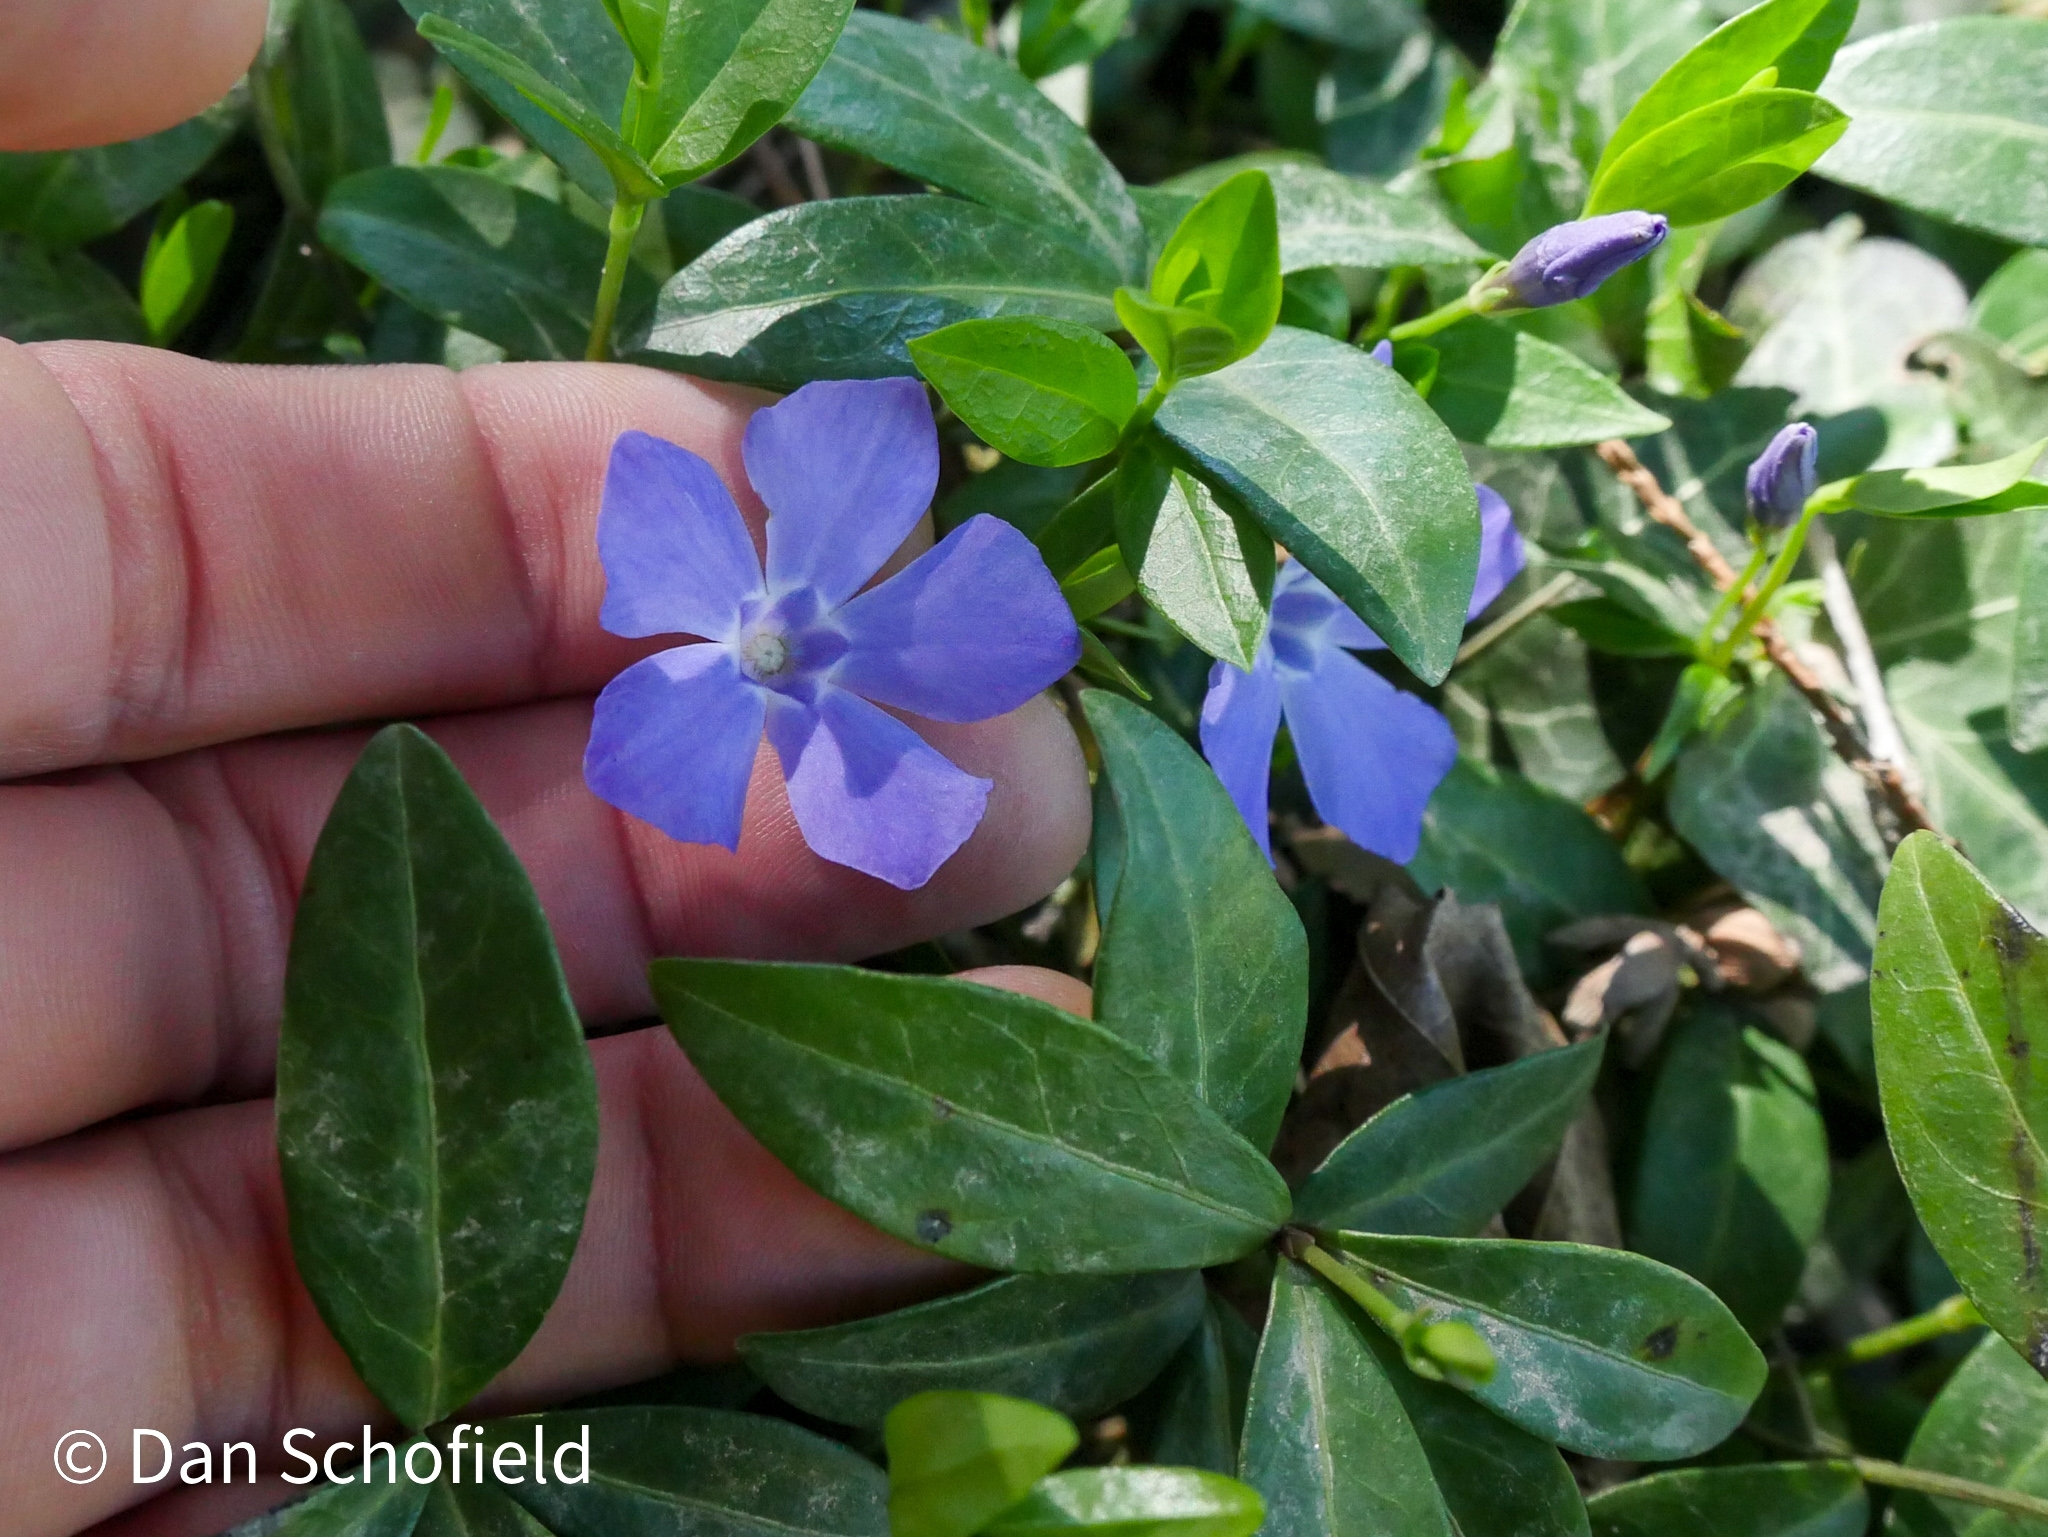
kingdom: Plantae
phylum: Tracheophyta
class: Magnoliopsida
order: Gentianales
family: Apocynaceae
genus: Vinca
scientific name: Vinca minor
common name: Lesser periwinkle
